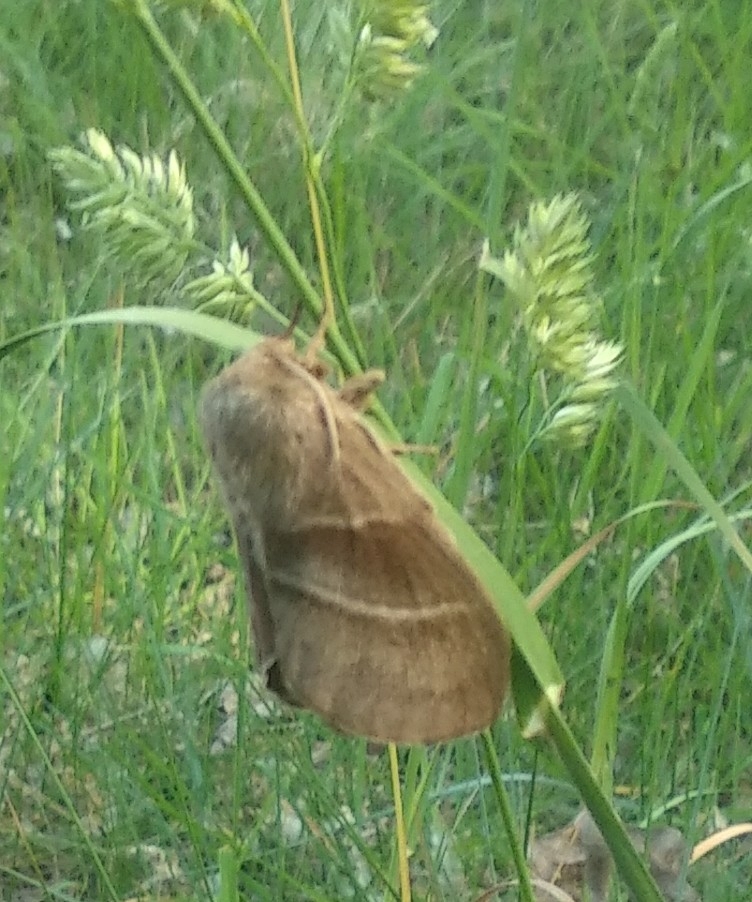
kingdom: Animalia
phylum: Arthropoda
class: Insecta
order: Lepidoptera
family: Lasiocampidae
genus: Macrothylacia
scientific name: Macrothylacia rubi
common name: Fox moth
